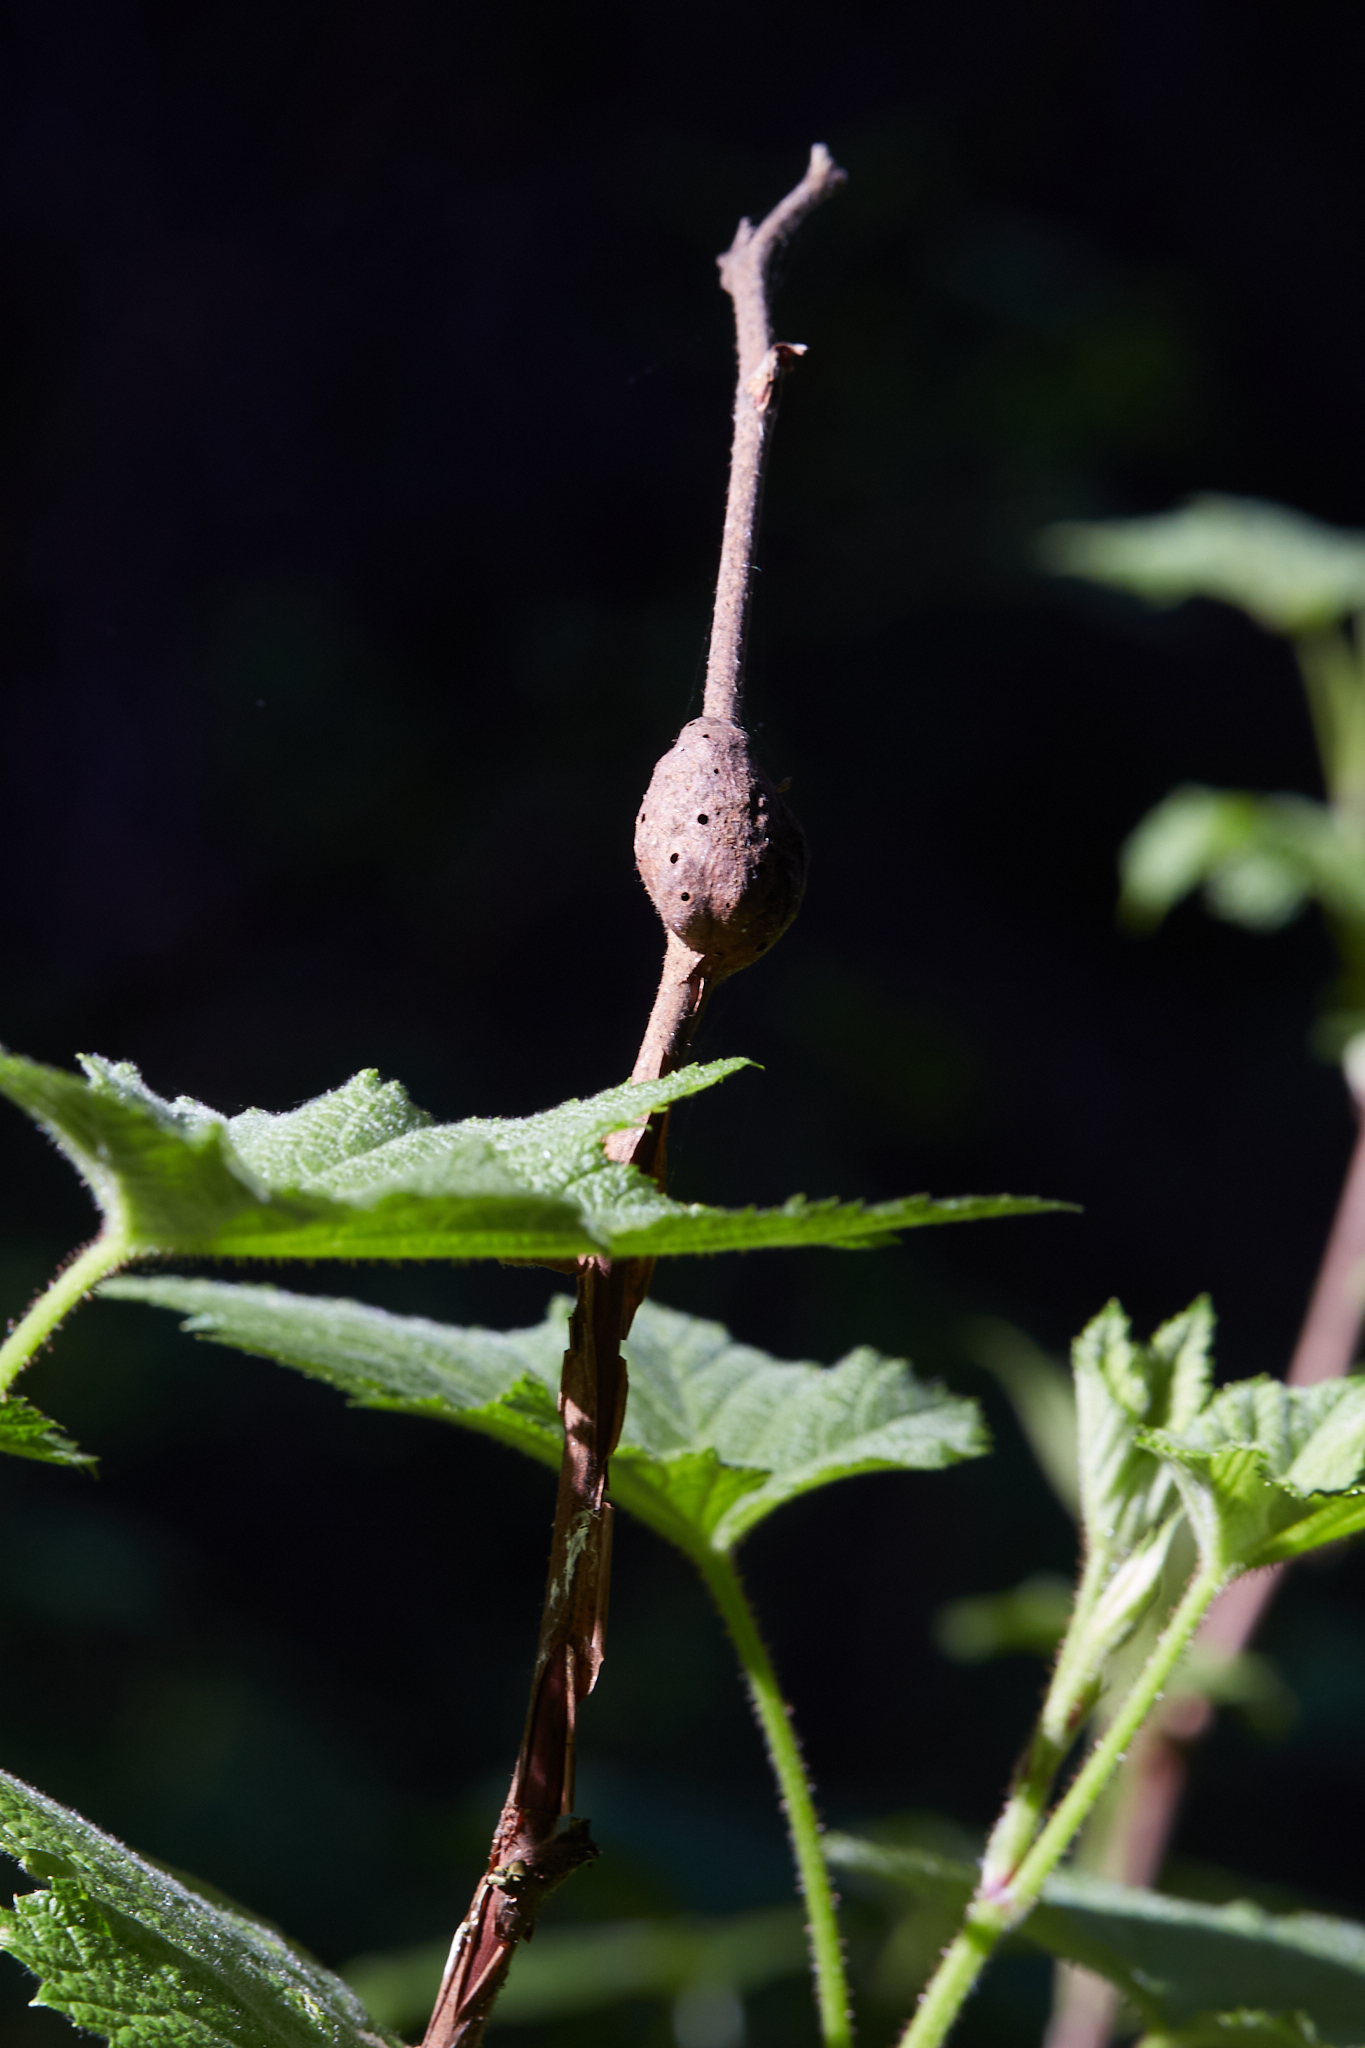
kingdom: Animalia
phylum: Arthropoda
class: Insecta
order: Hymenoptera
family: Cynipidae
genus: Diastrophus
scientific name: Diastrophus
